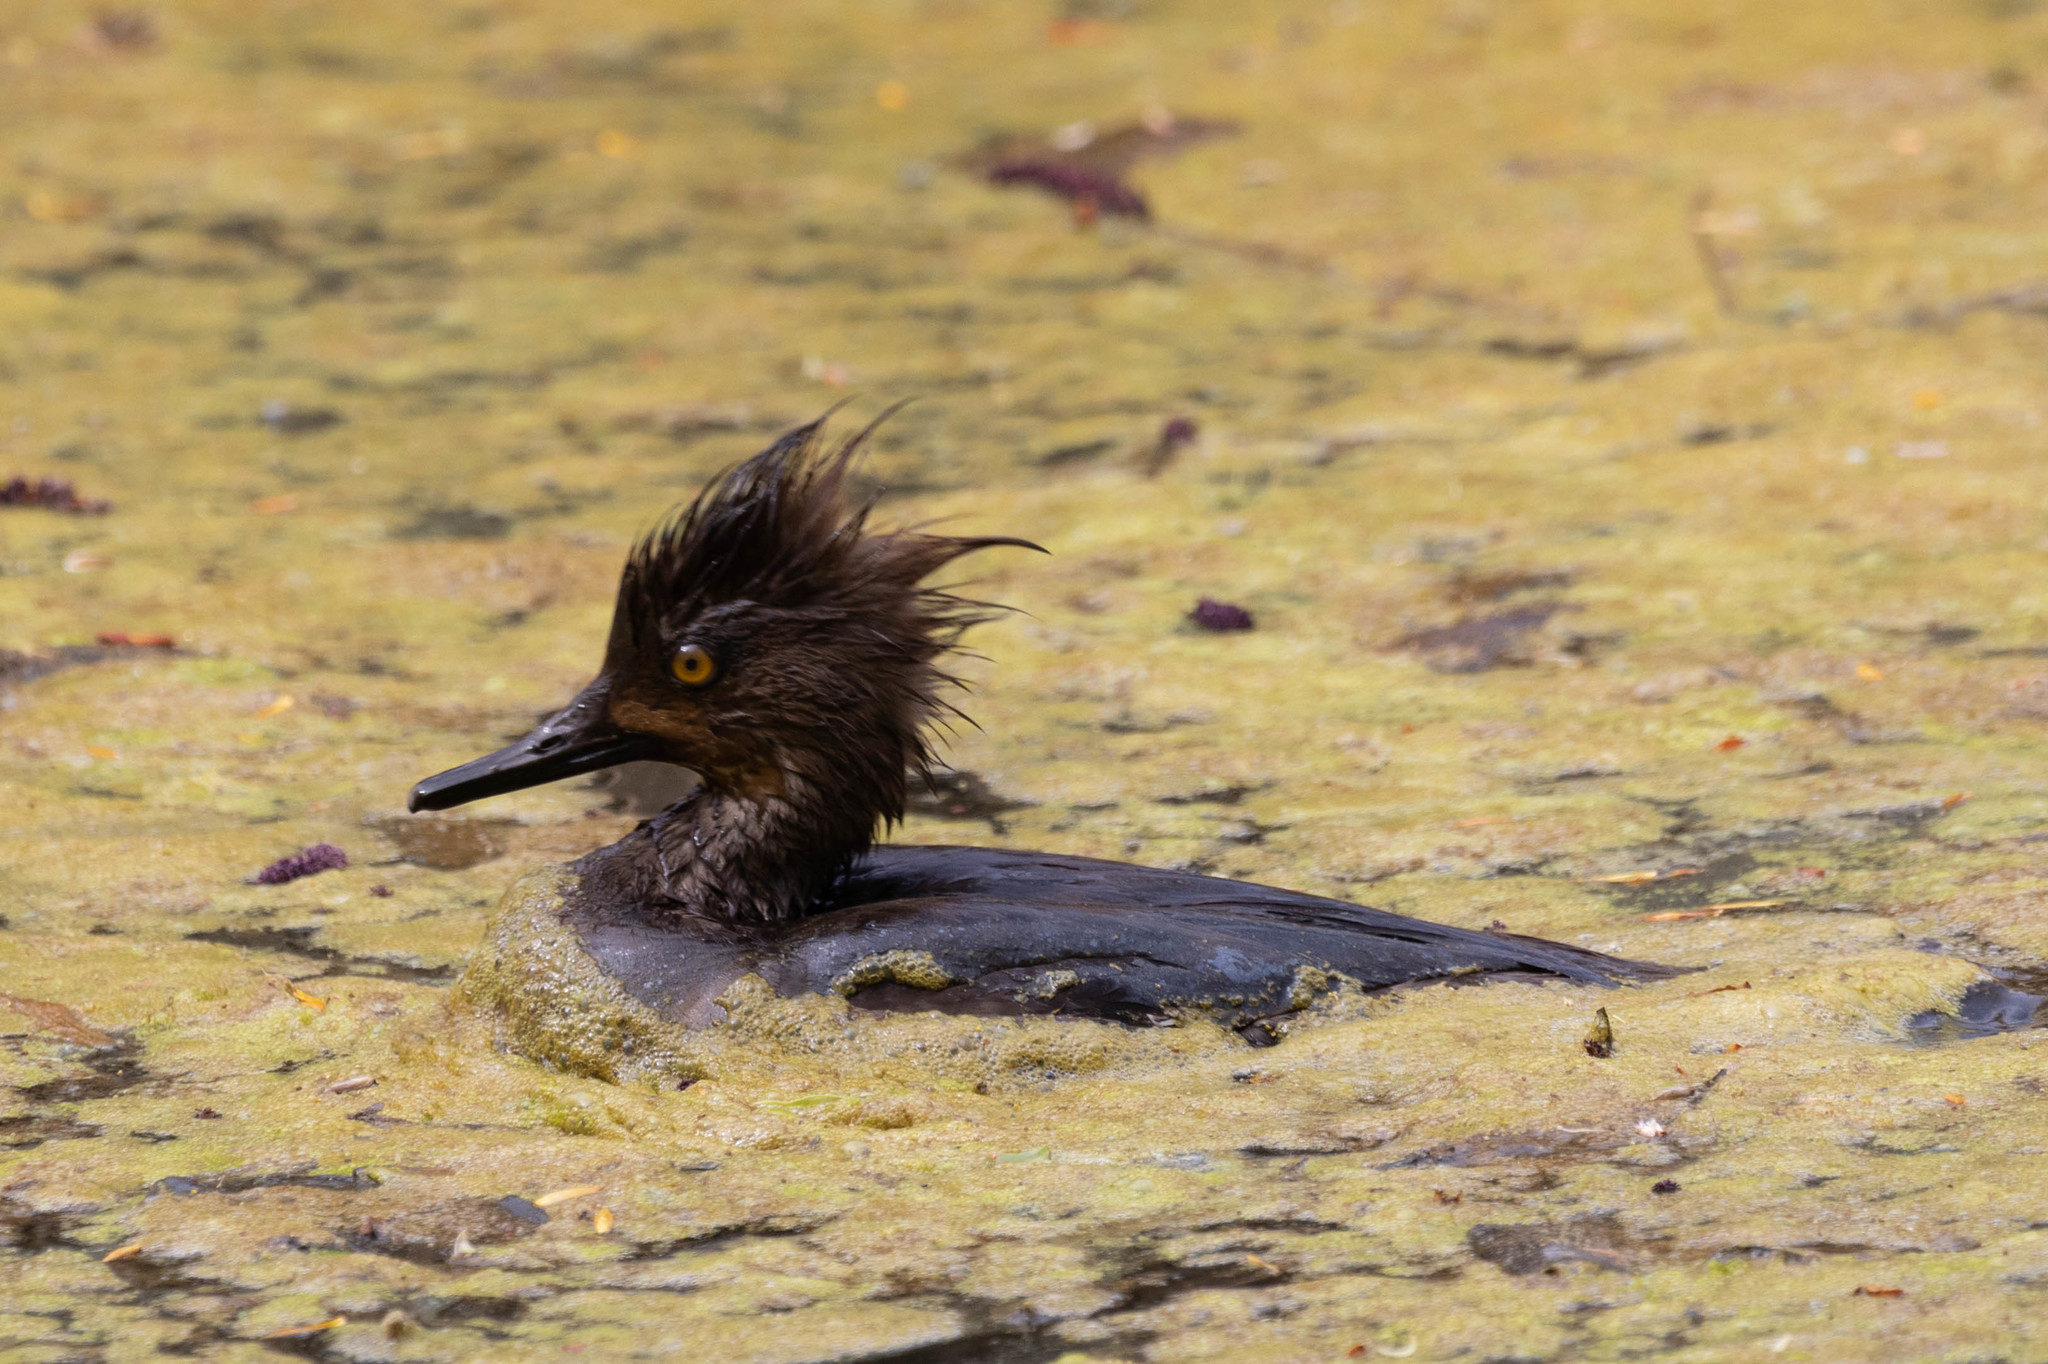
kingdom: Animalia
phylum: Chordata
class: Aves
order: Anseriformes
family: Anatidae
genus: Lophodytes
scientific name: Lophodytes cucullatus
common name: Hooded merganser
